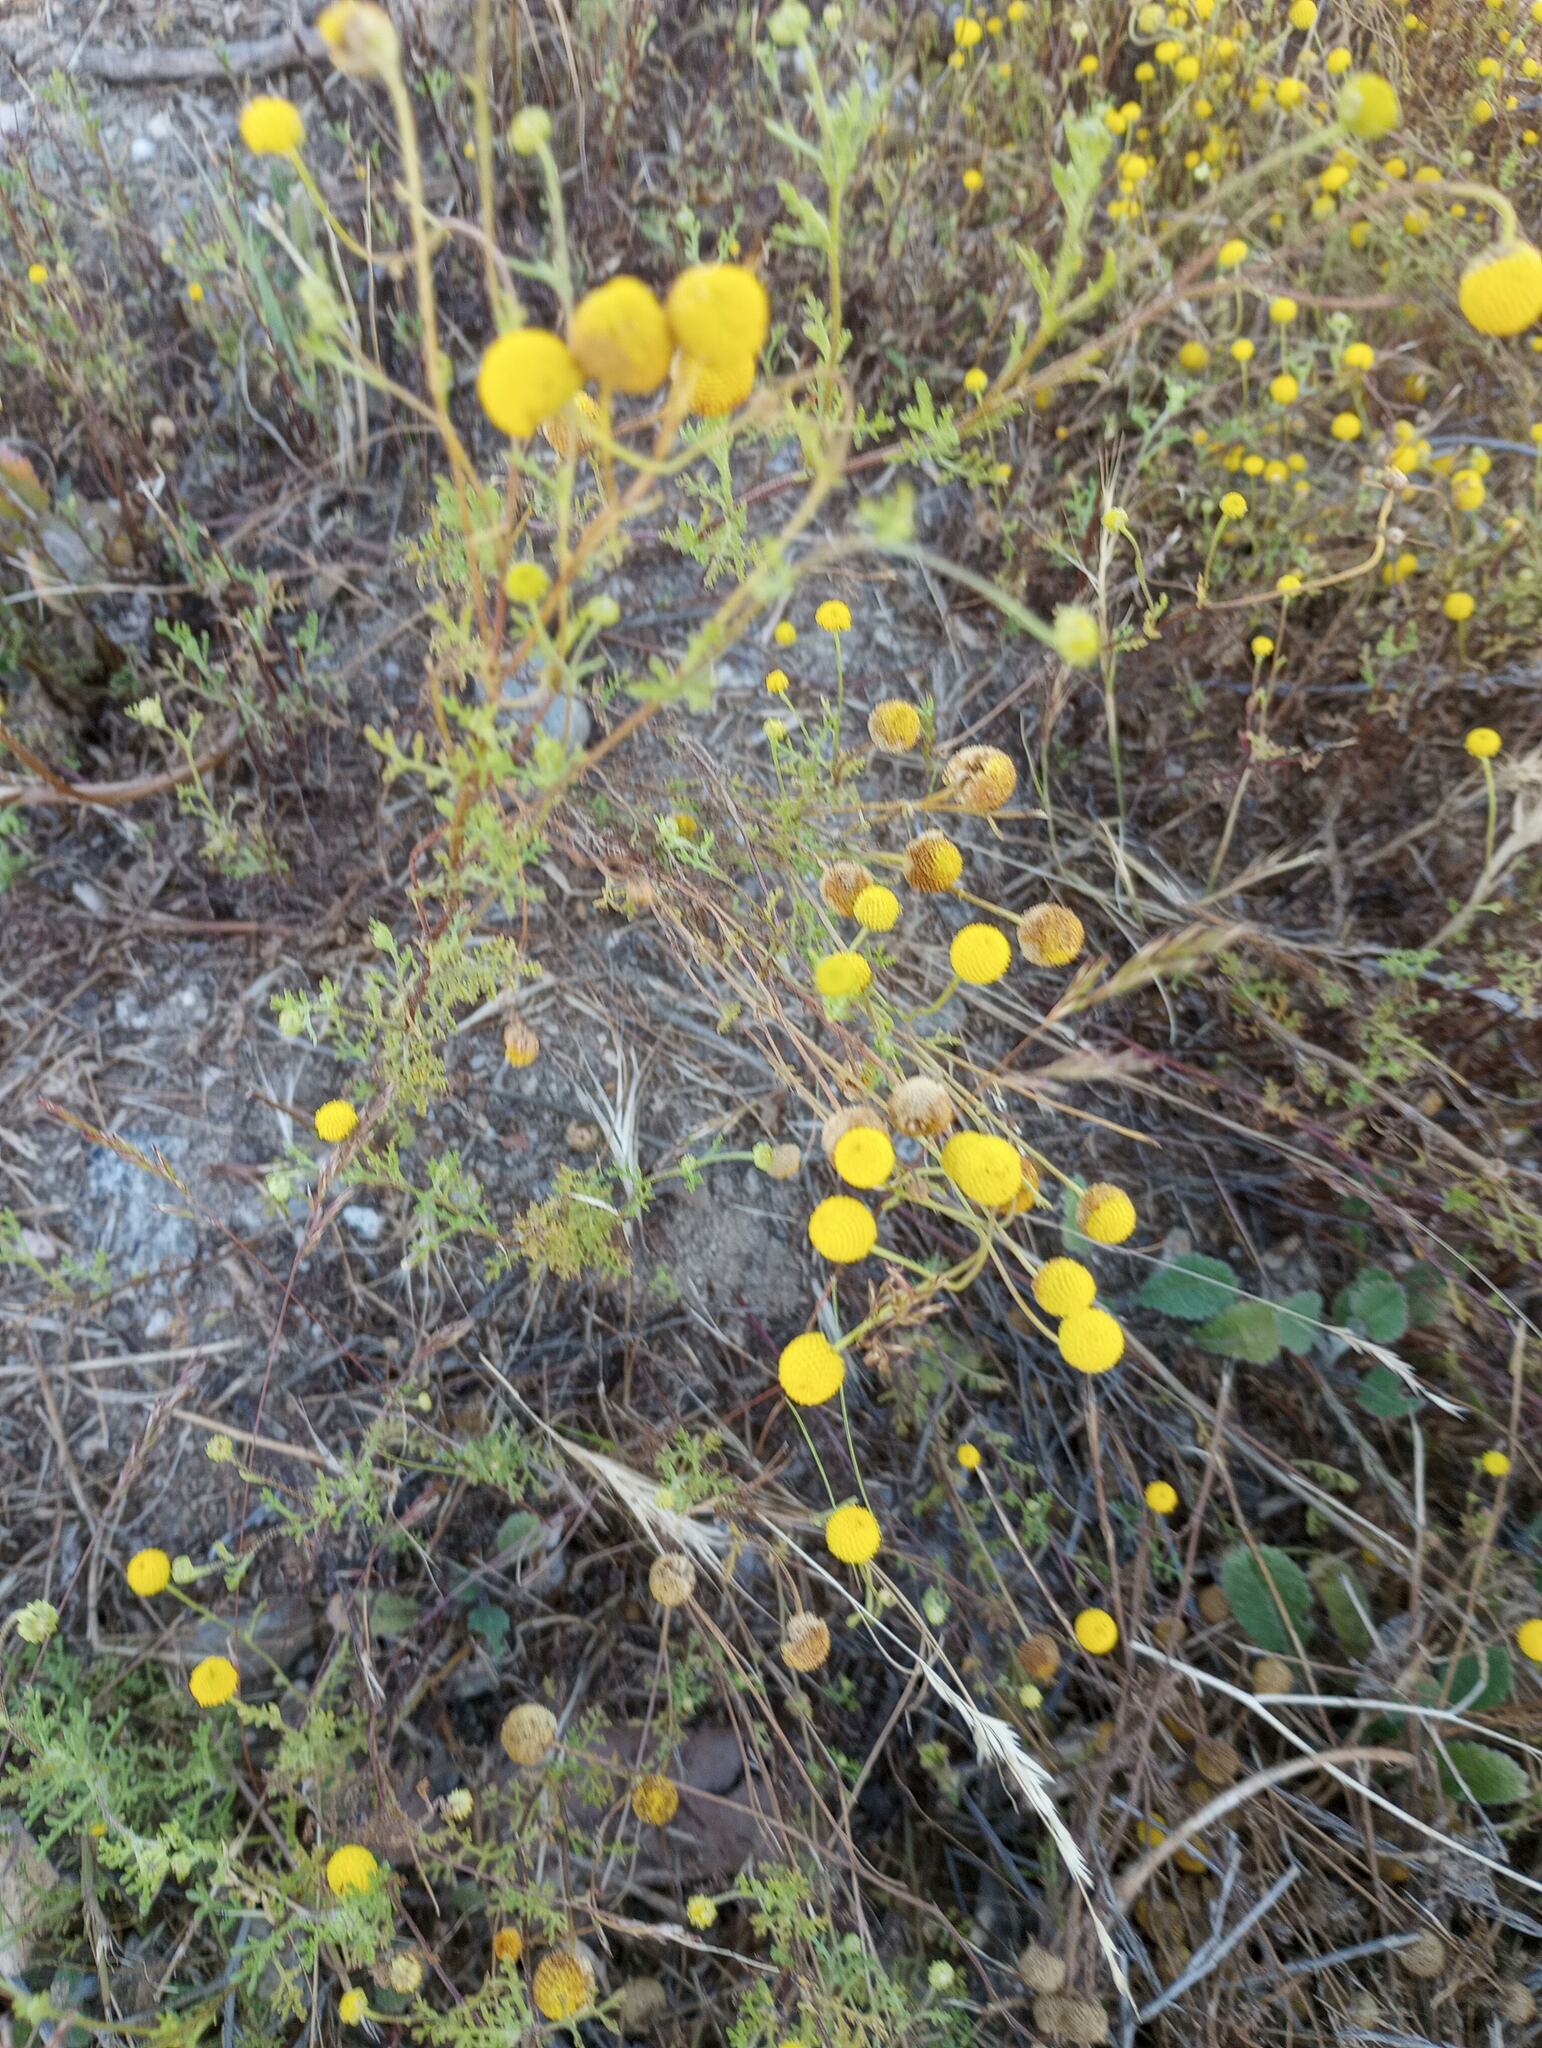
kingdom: Plantae
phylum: Tracheophyta
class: Magnoliopsida
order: Asterales
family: Asteraceae
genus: Oncosiphon
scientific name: Oncosiphon pilulifer
